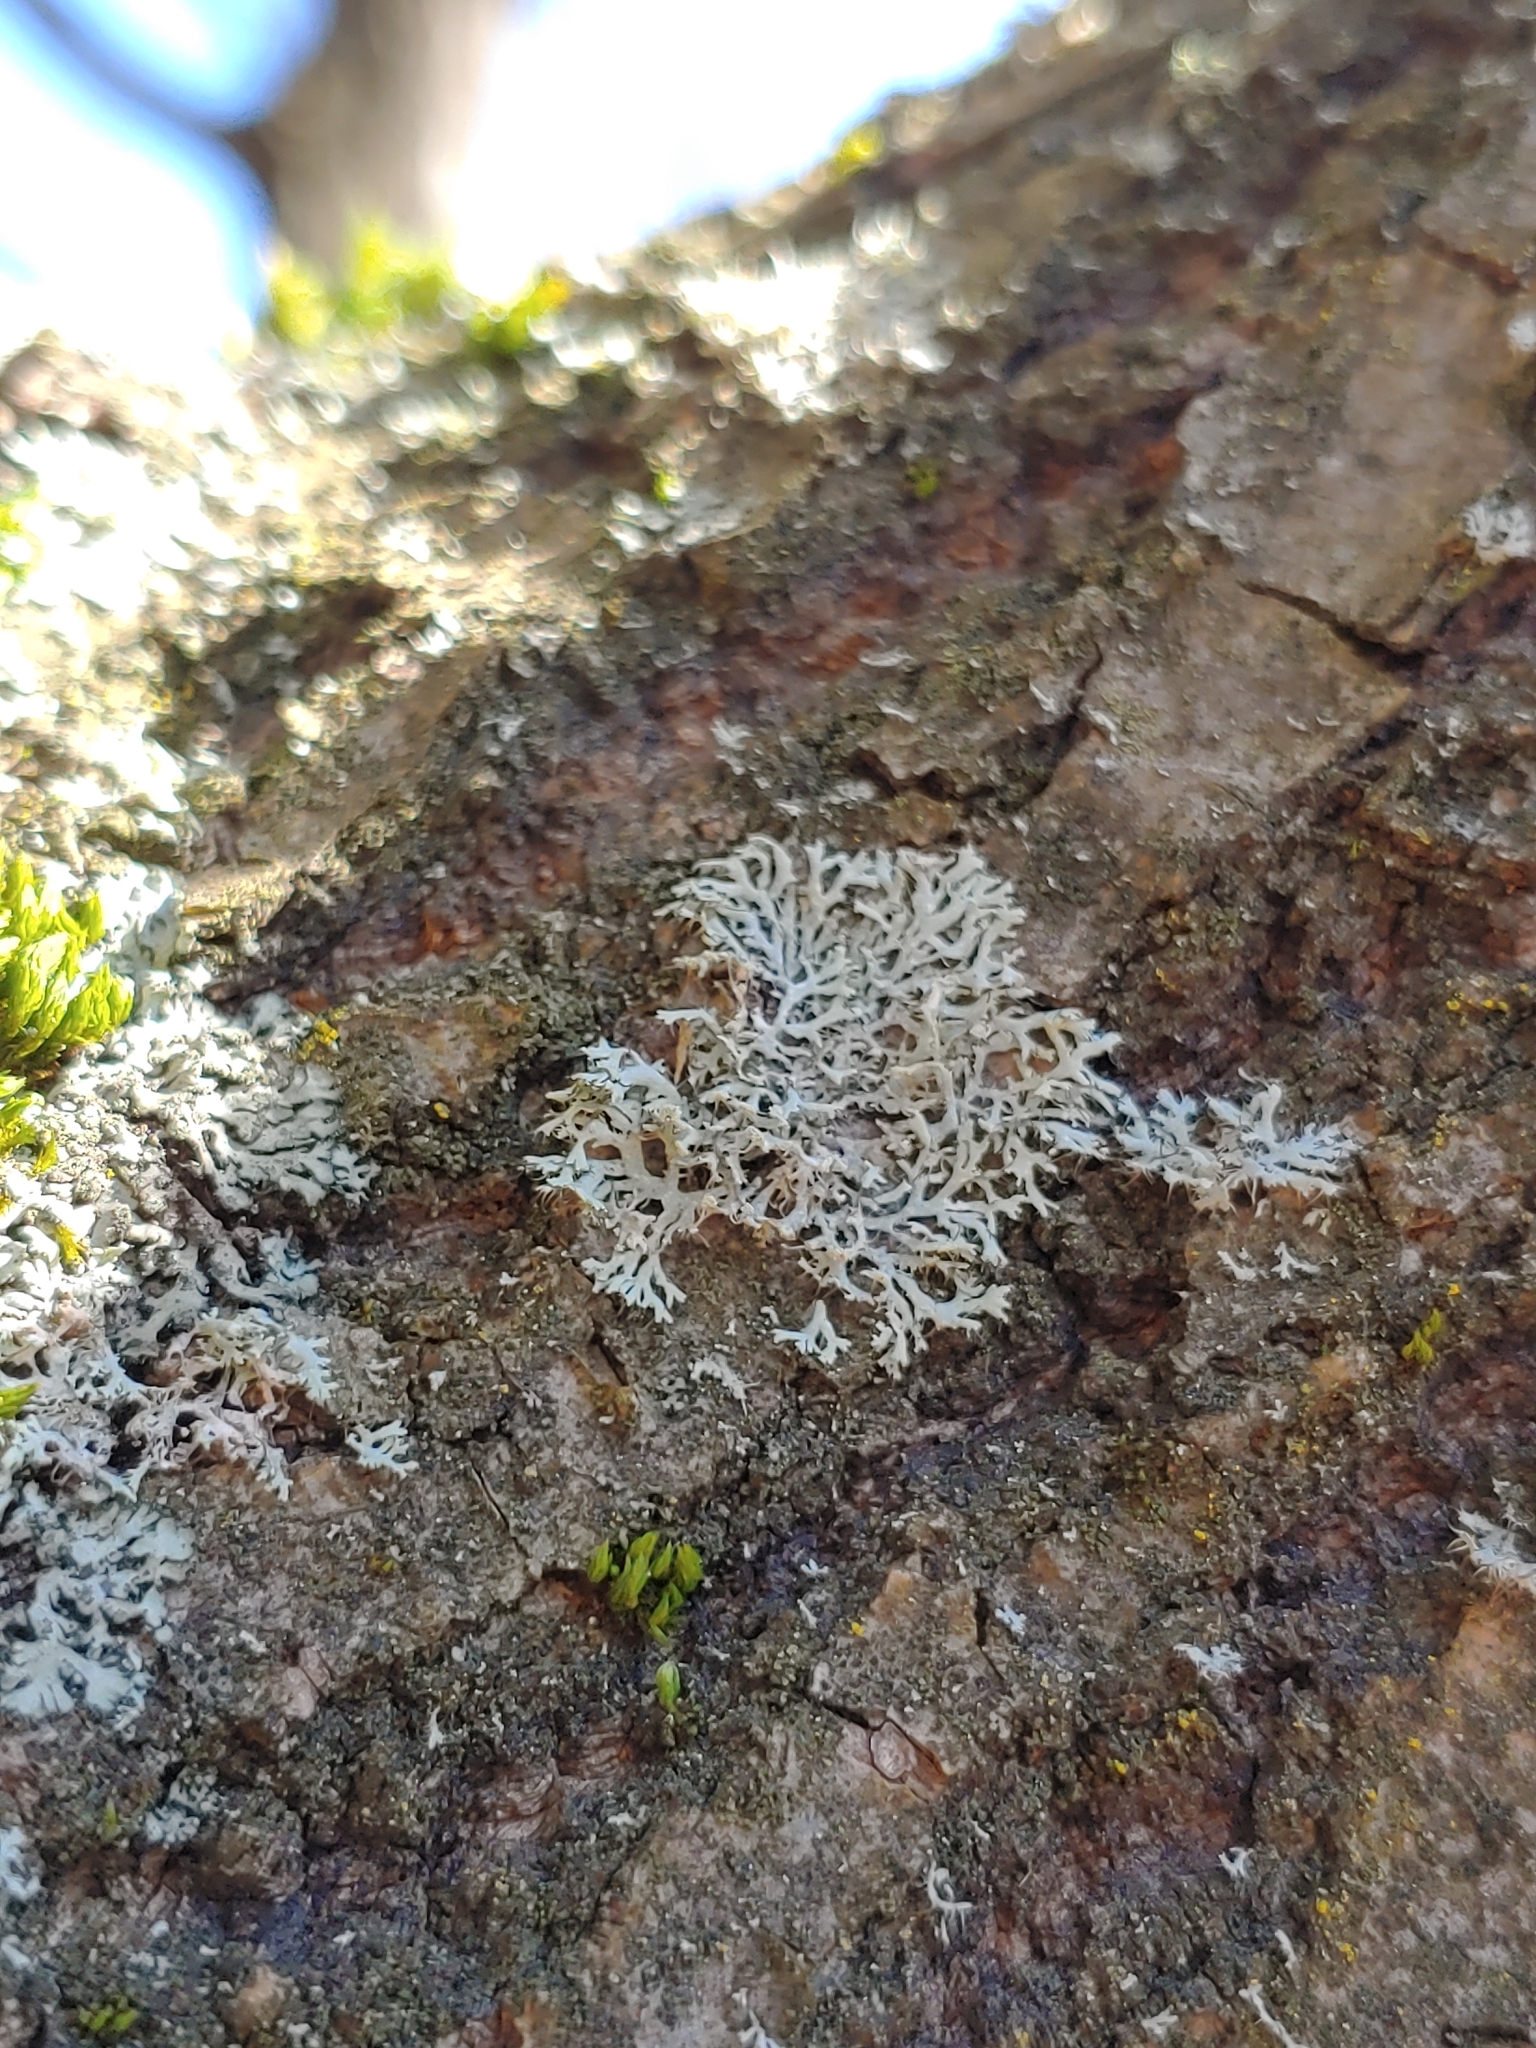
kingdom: Fungi
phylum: Ascomycota
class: Lecanoromycetes
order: Caliciales
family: Physciaceae
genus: Physcia
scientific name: Physcia tenella
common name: Fringed rosette lichen
